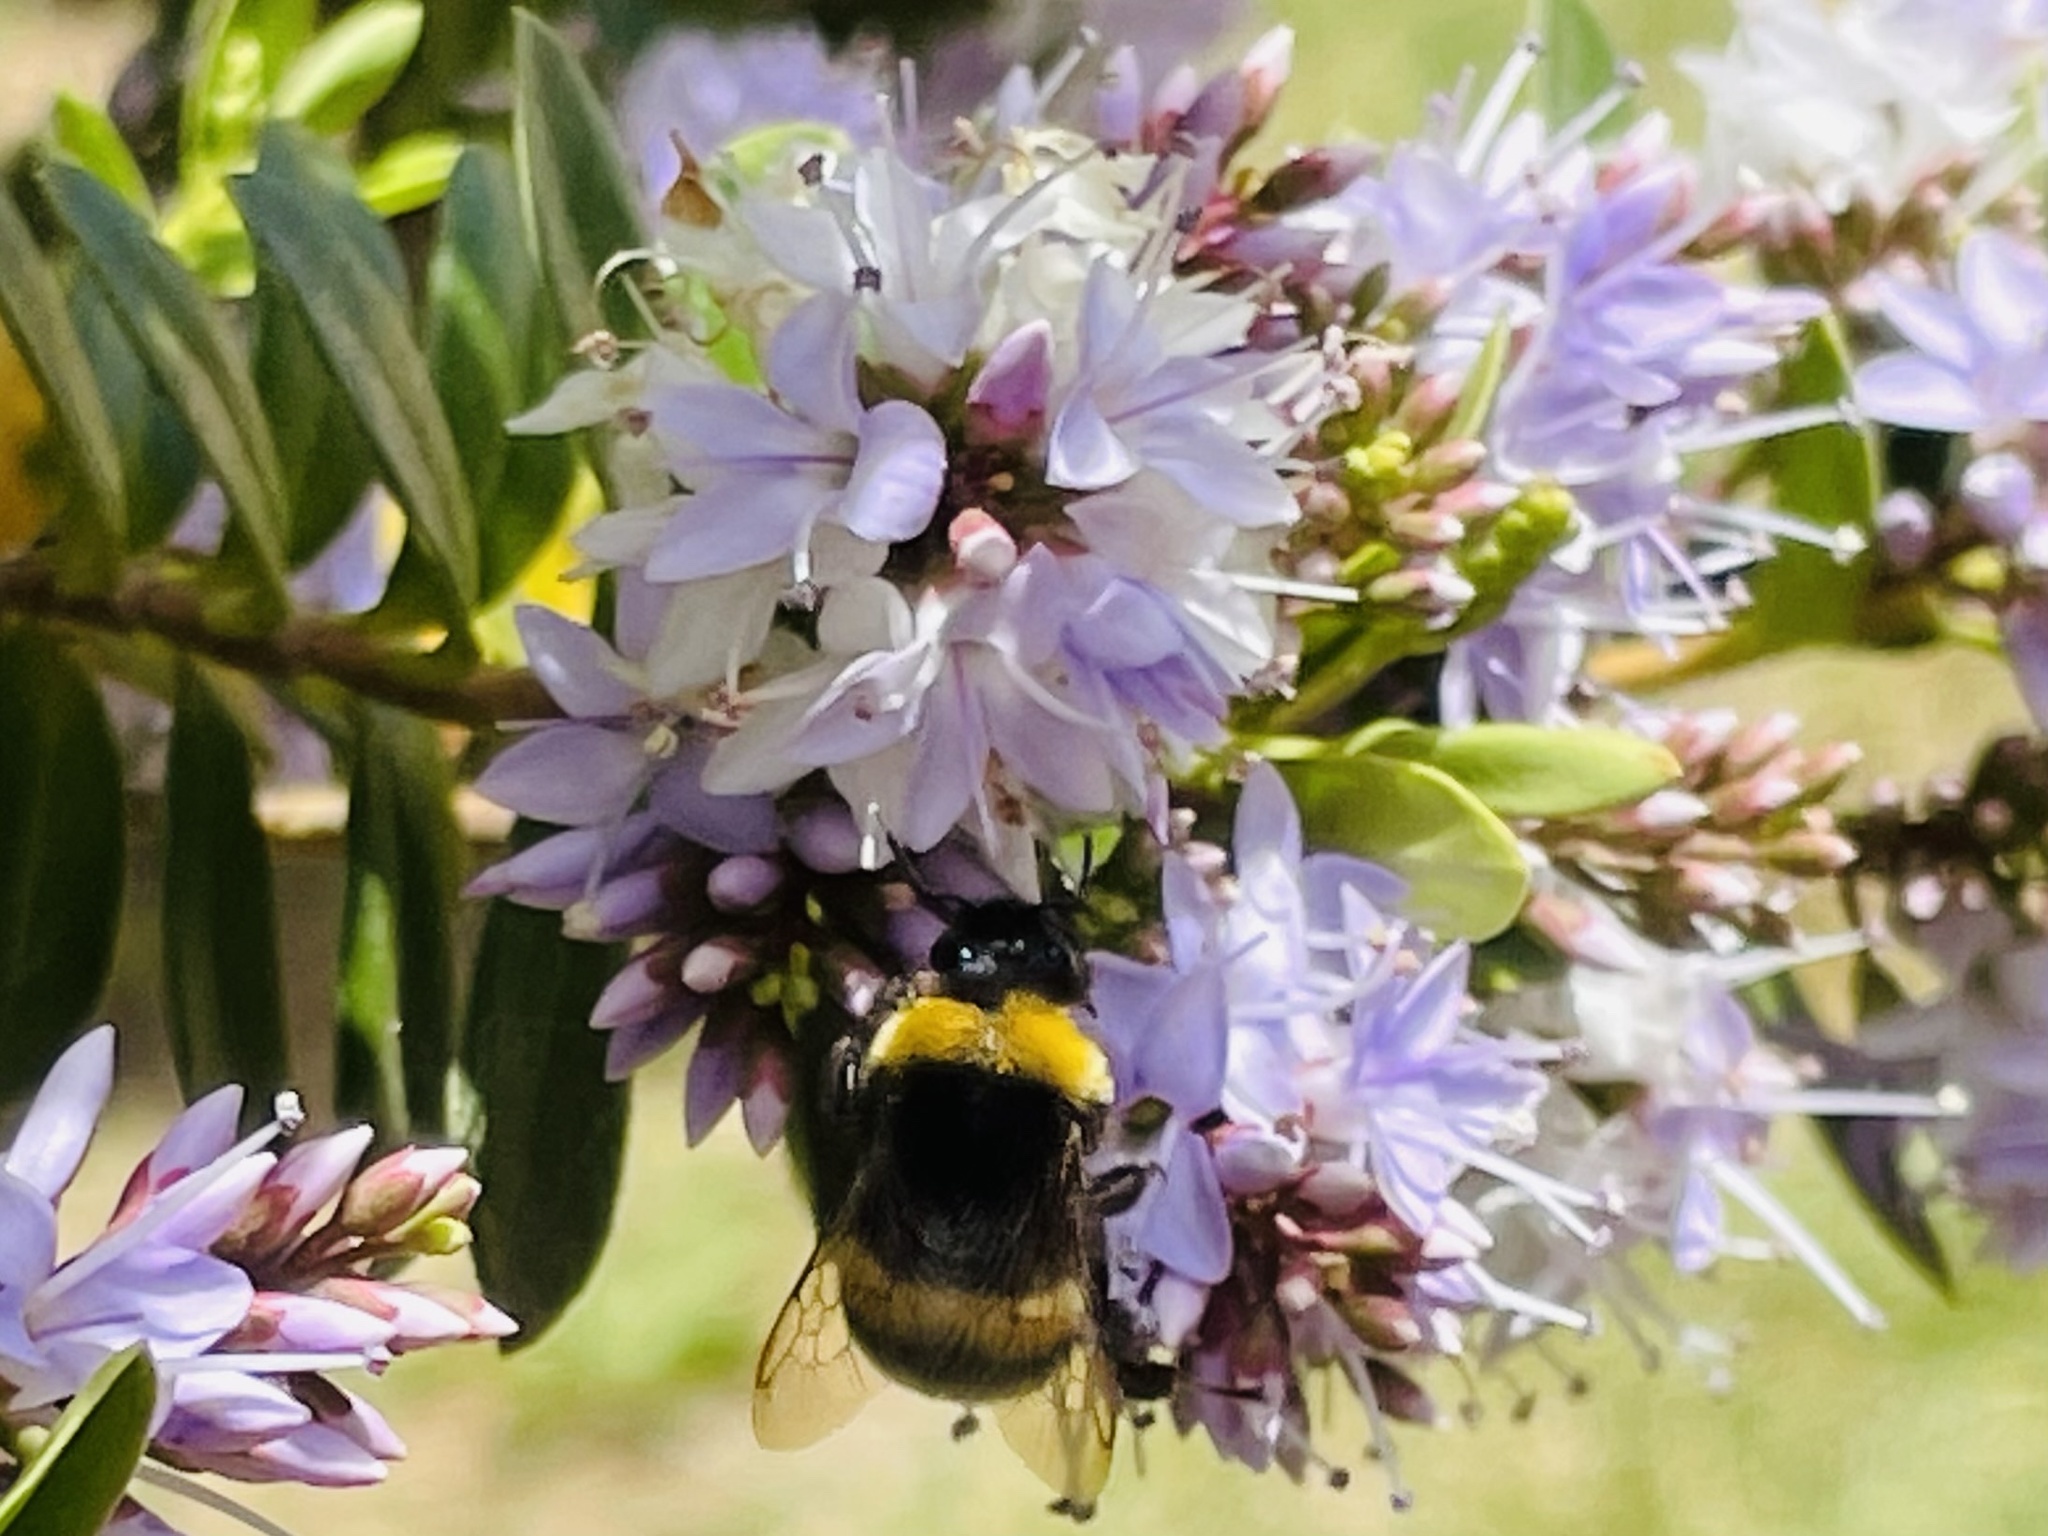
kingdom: Animalia
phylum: Arthropoda
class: Insecta
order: Hymenoptera
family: Apidae
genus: Bombus
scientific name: Bombus terrestris
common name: Buff-tailed bumblebee
